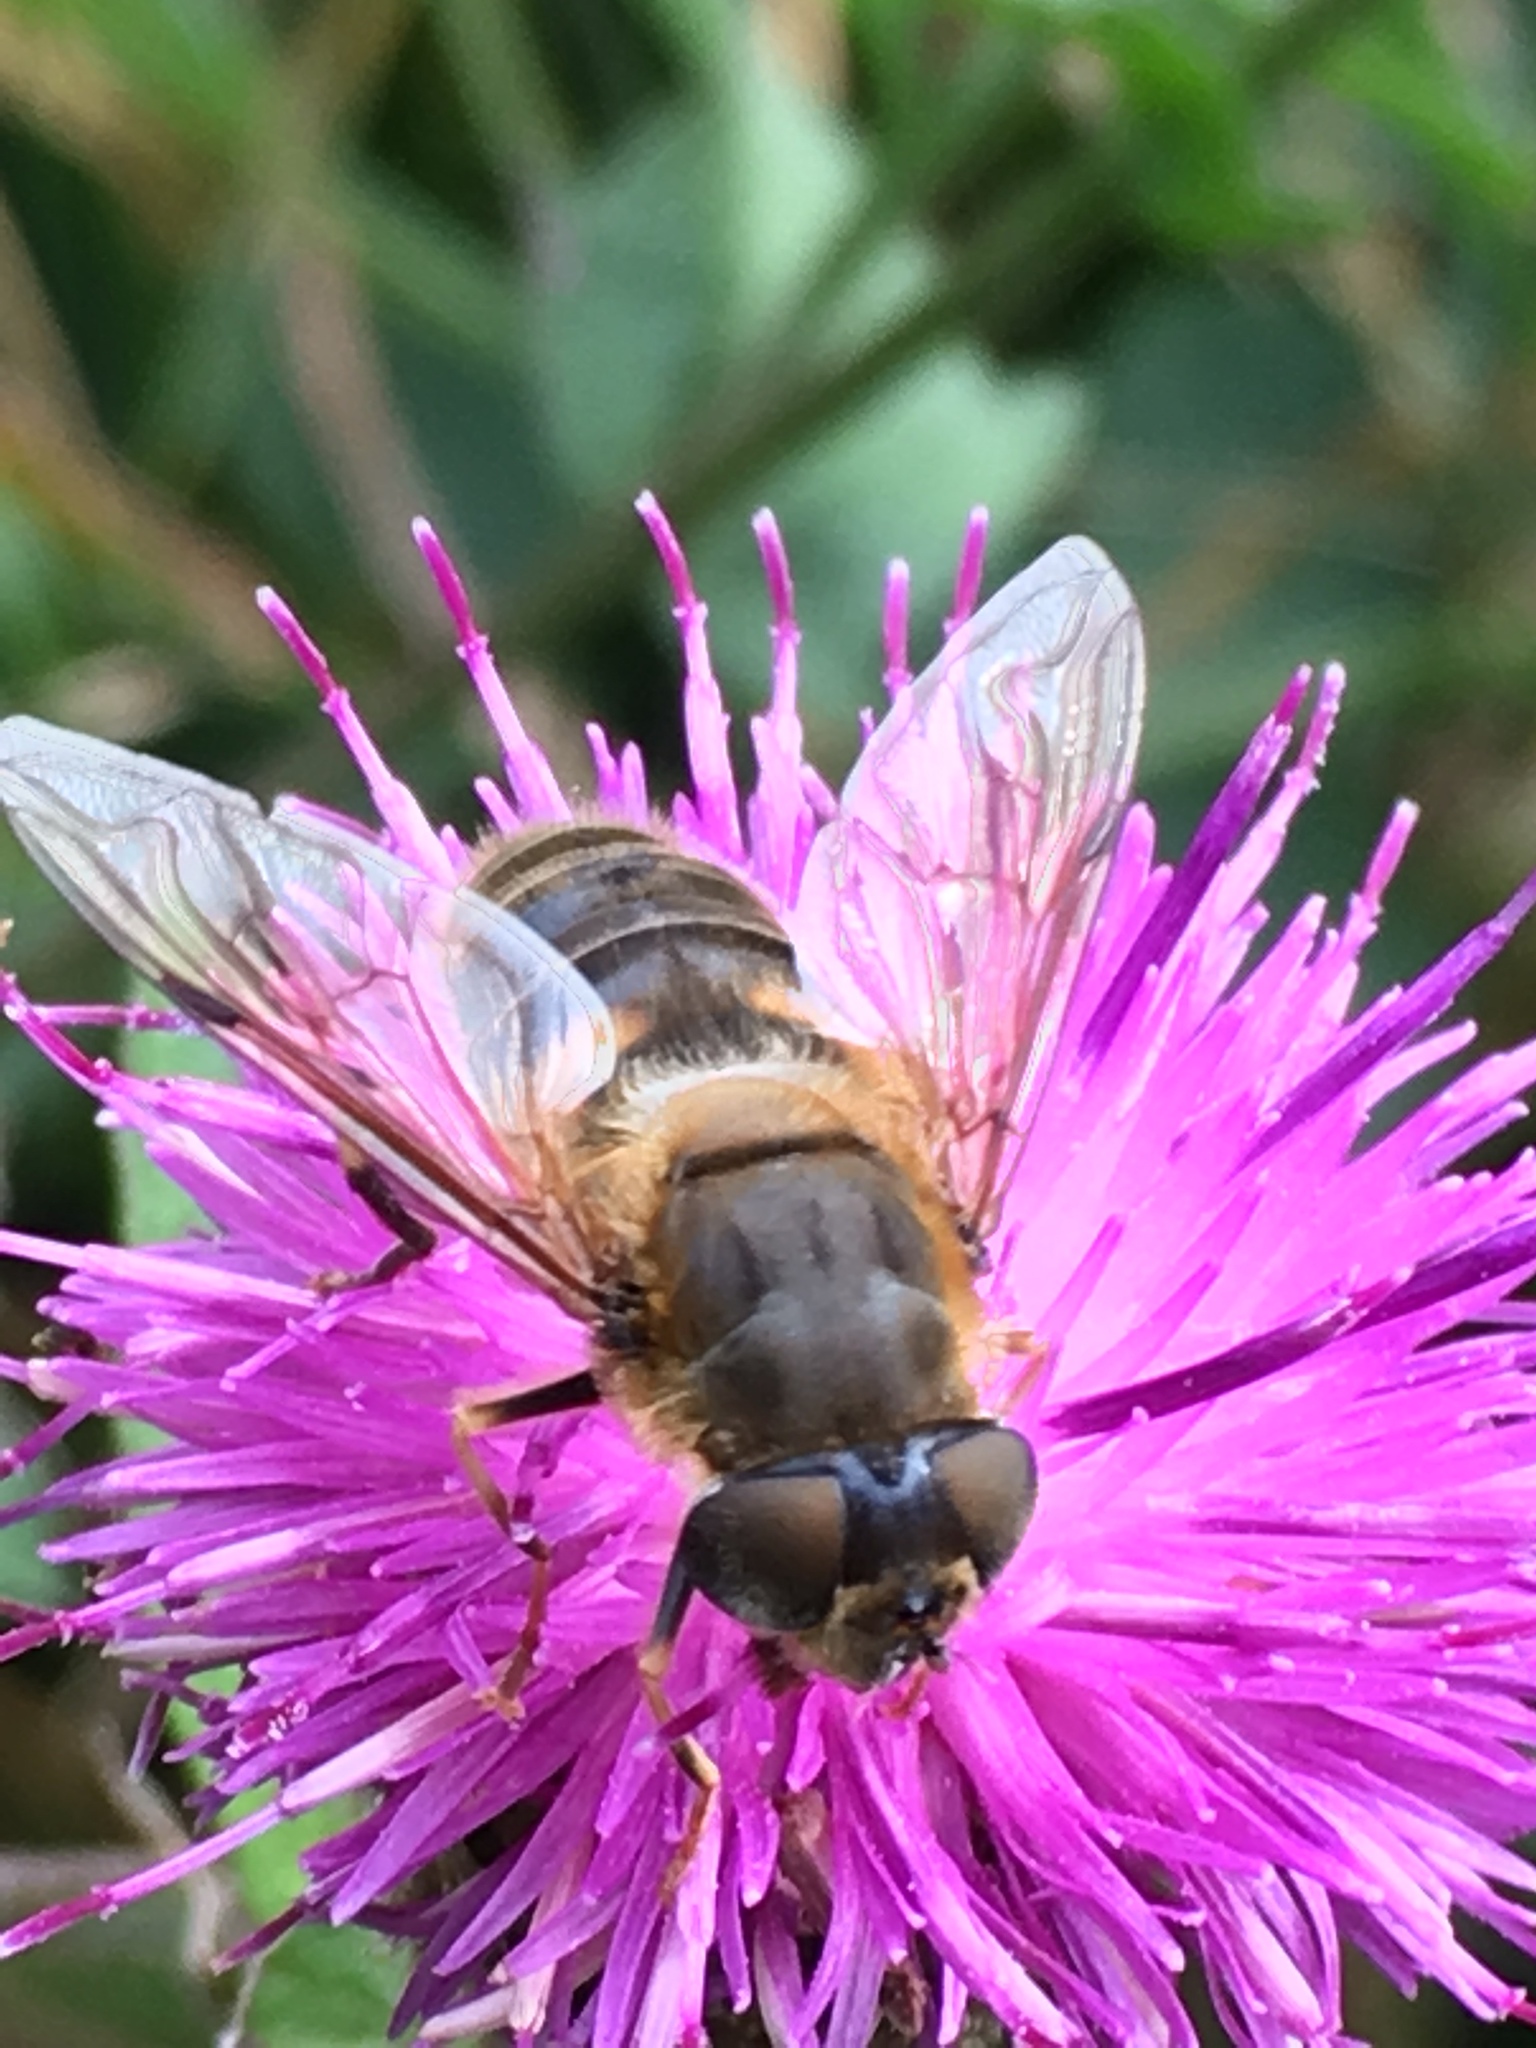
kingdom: Animalia
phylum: Arthropoda
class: Insecta
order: Diptera
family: Syrphidae
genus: Eristalis
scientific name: Eristalis pertinax
